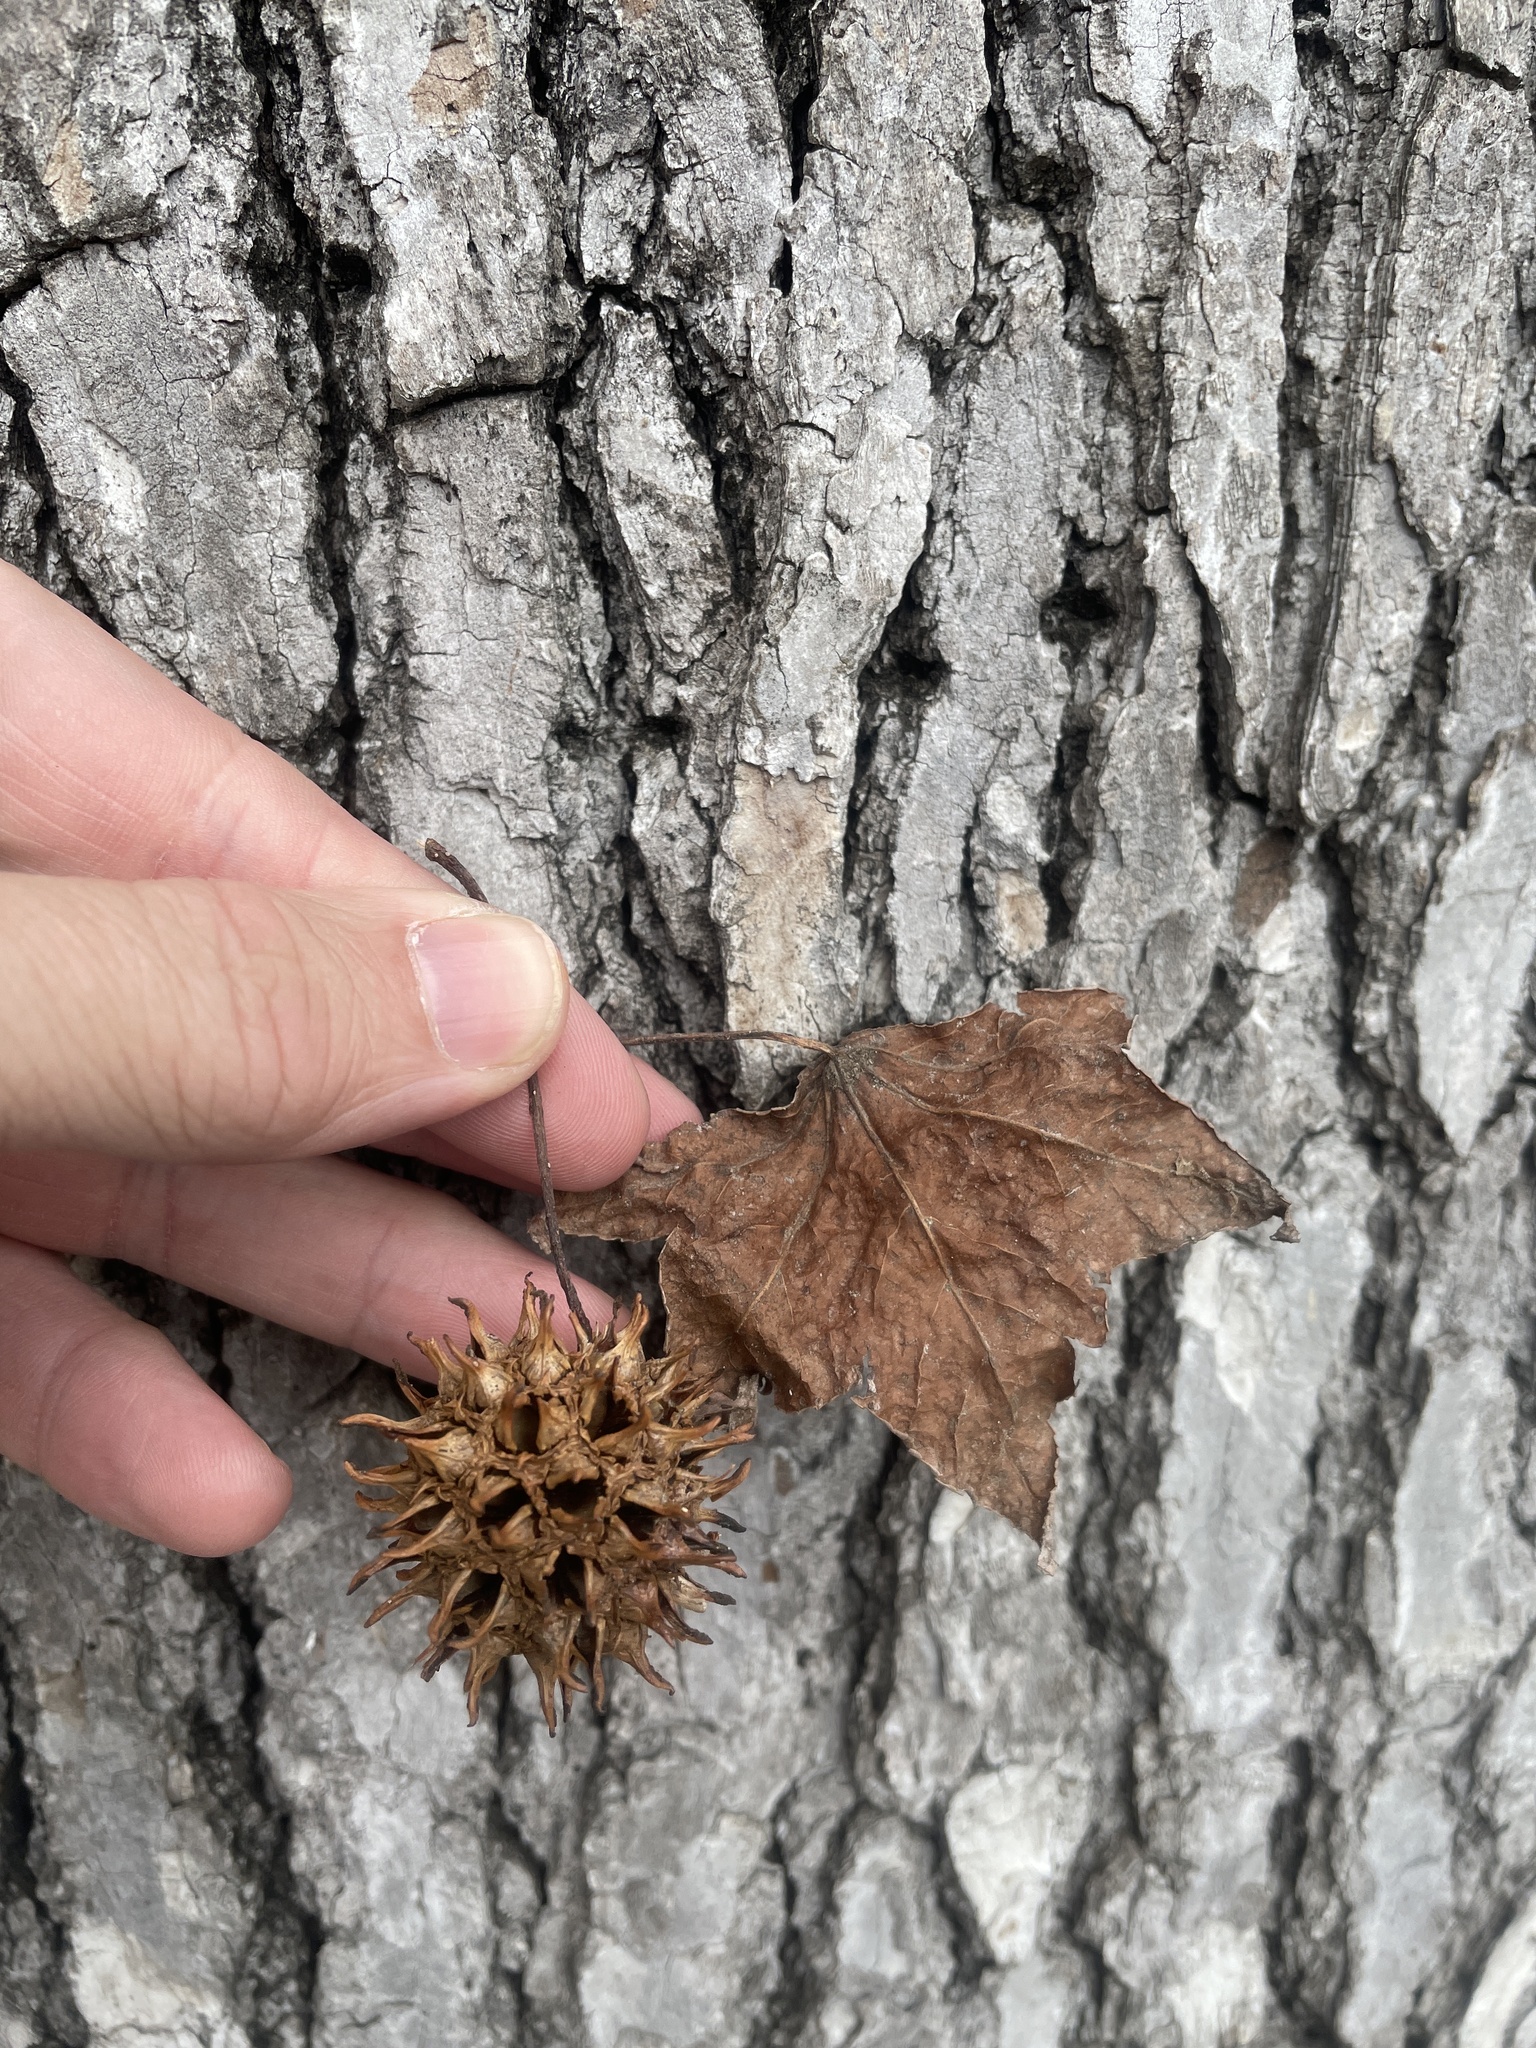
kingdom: Plantae
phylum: Tracheophyta
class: Magnoliopsida
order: Saxifragales
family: Altingiaceae
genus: Liquidambar
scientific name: Liquidambar styraciflua
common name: Sweet gum
